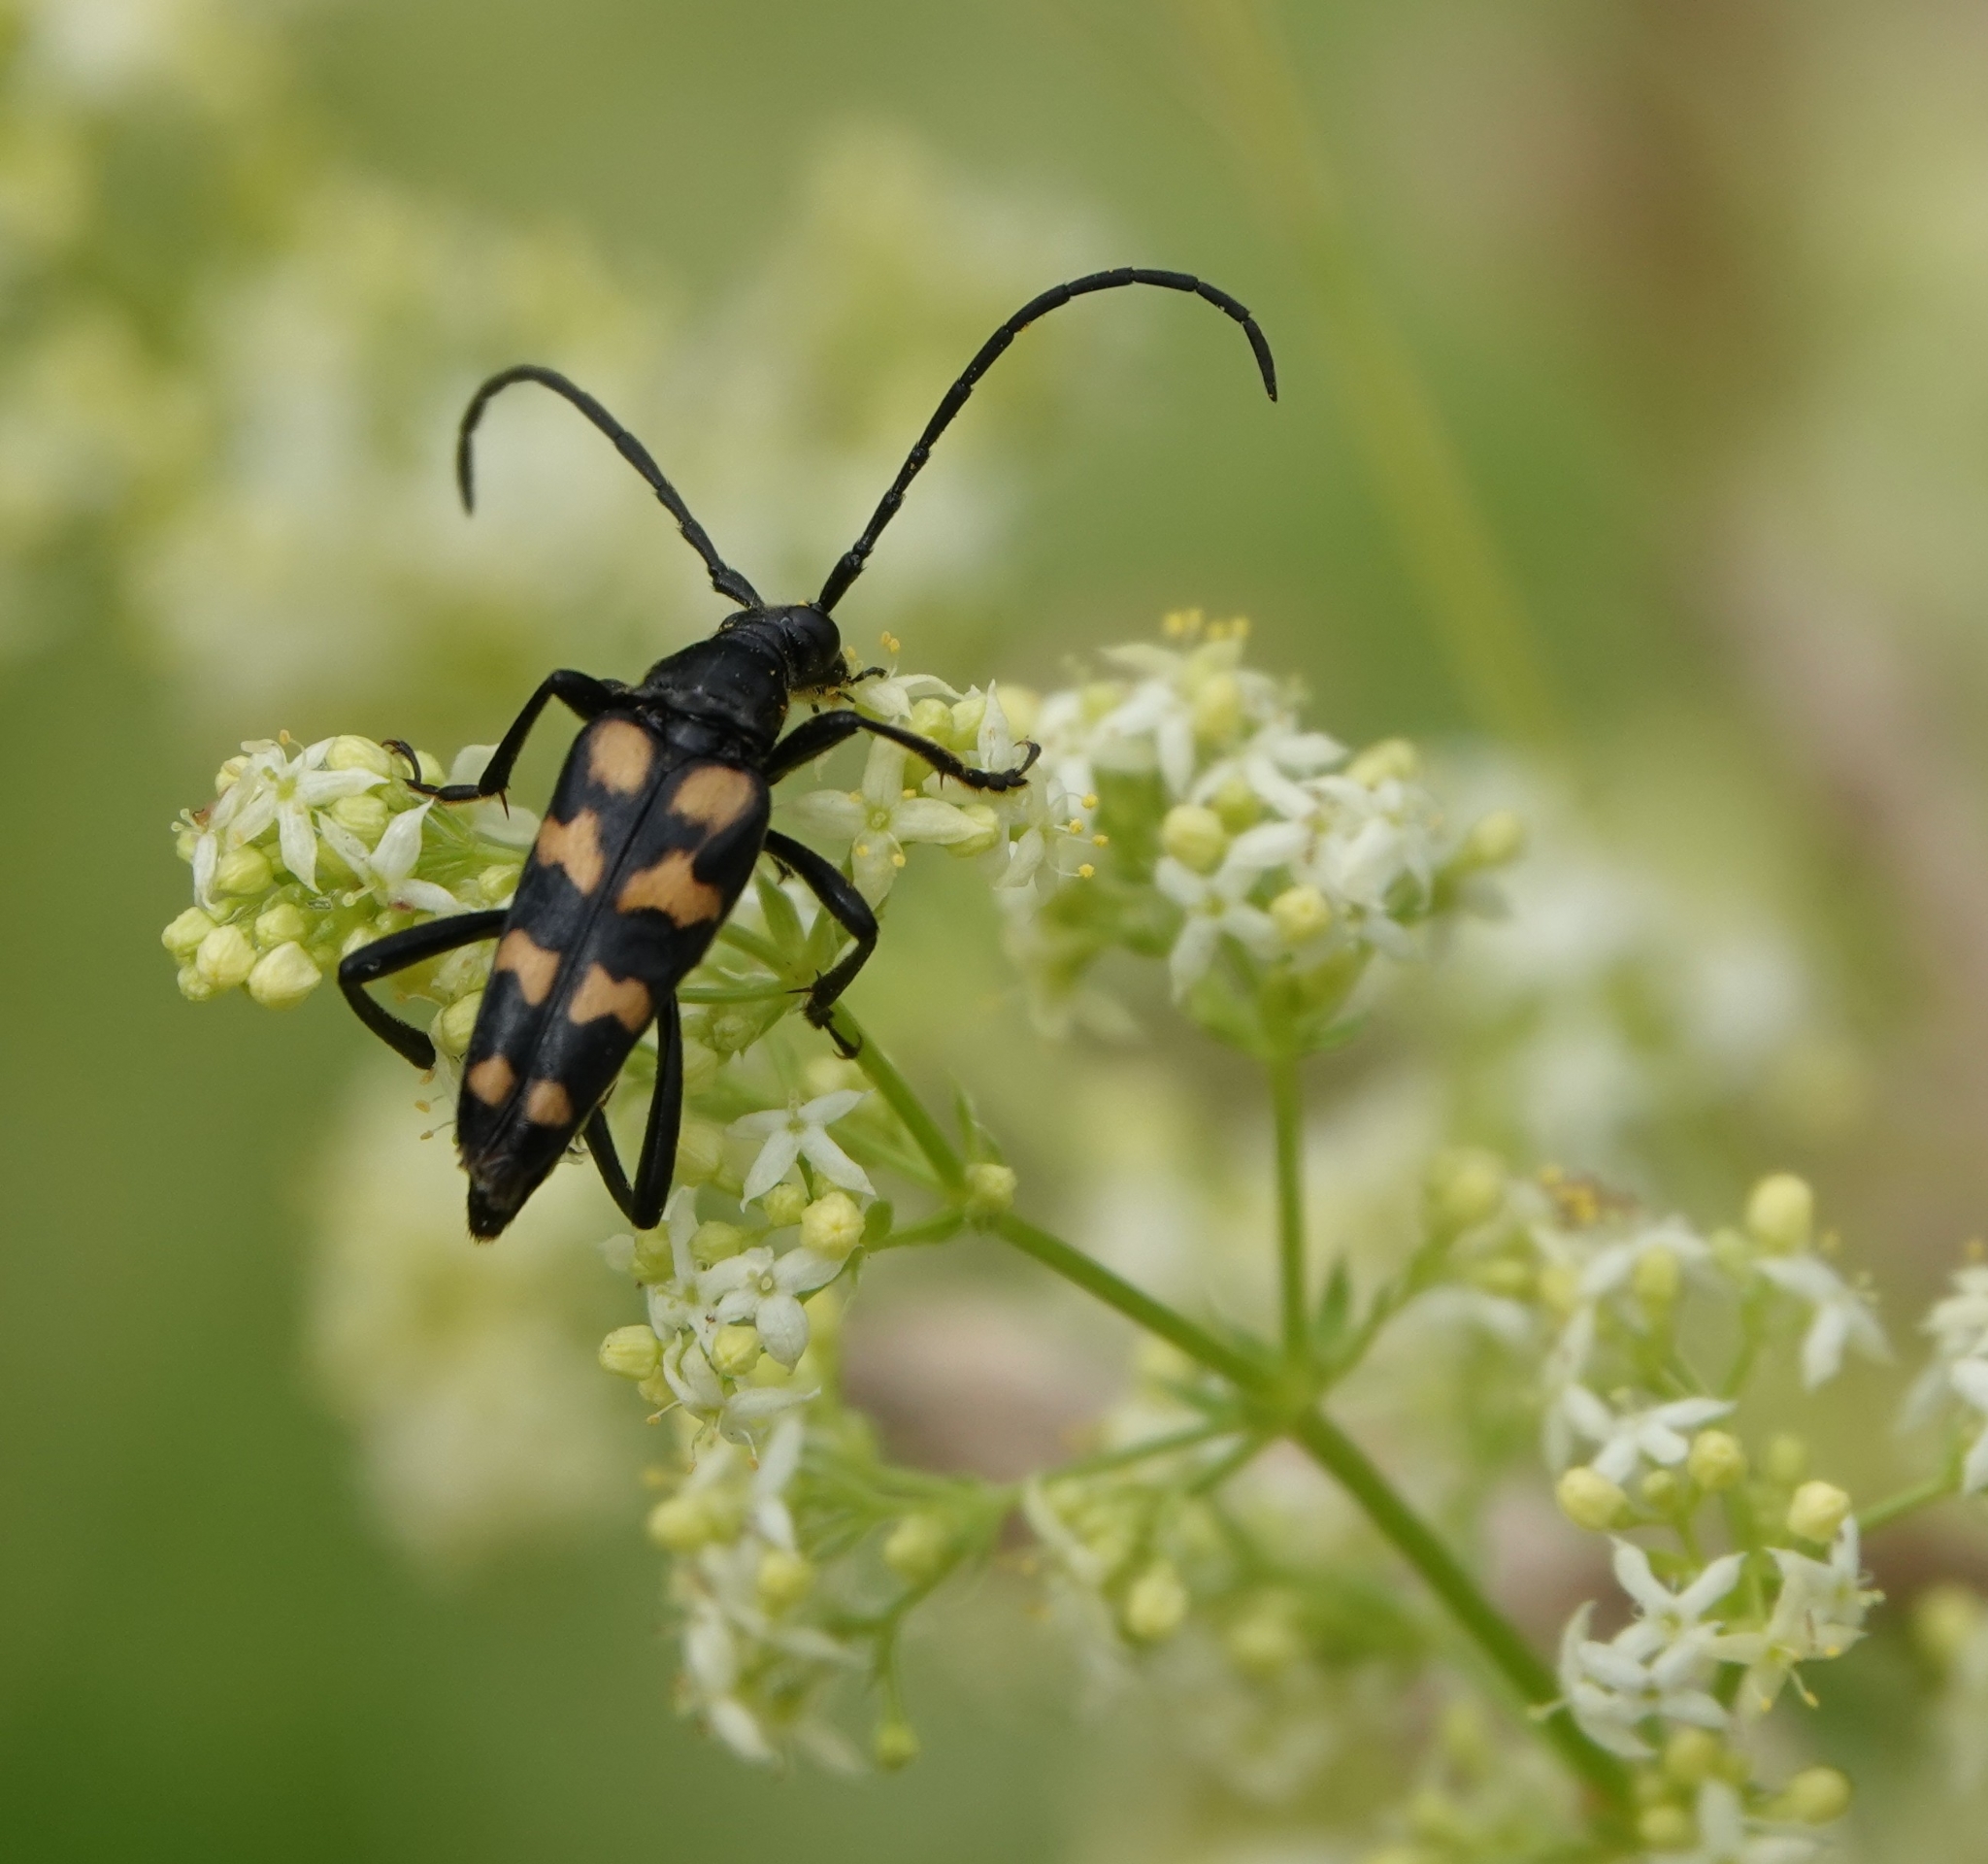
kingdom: Animalia
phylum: Arthropoda
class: Insecta
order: Coleoptera
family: Cerambycidae
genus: Leptura
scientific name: Leptura quadrifasciata
